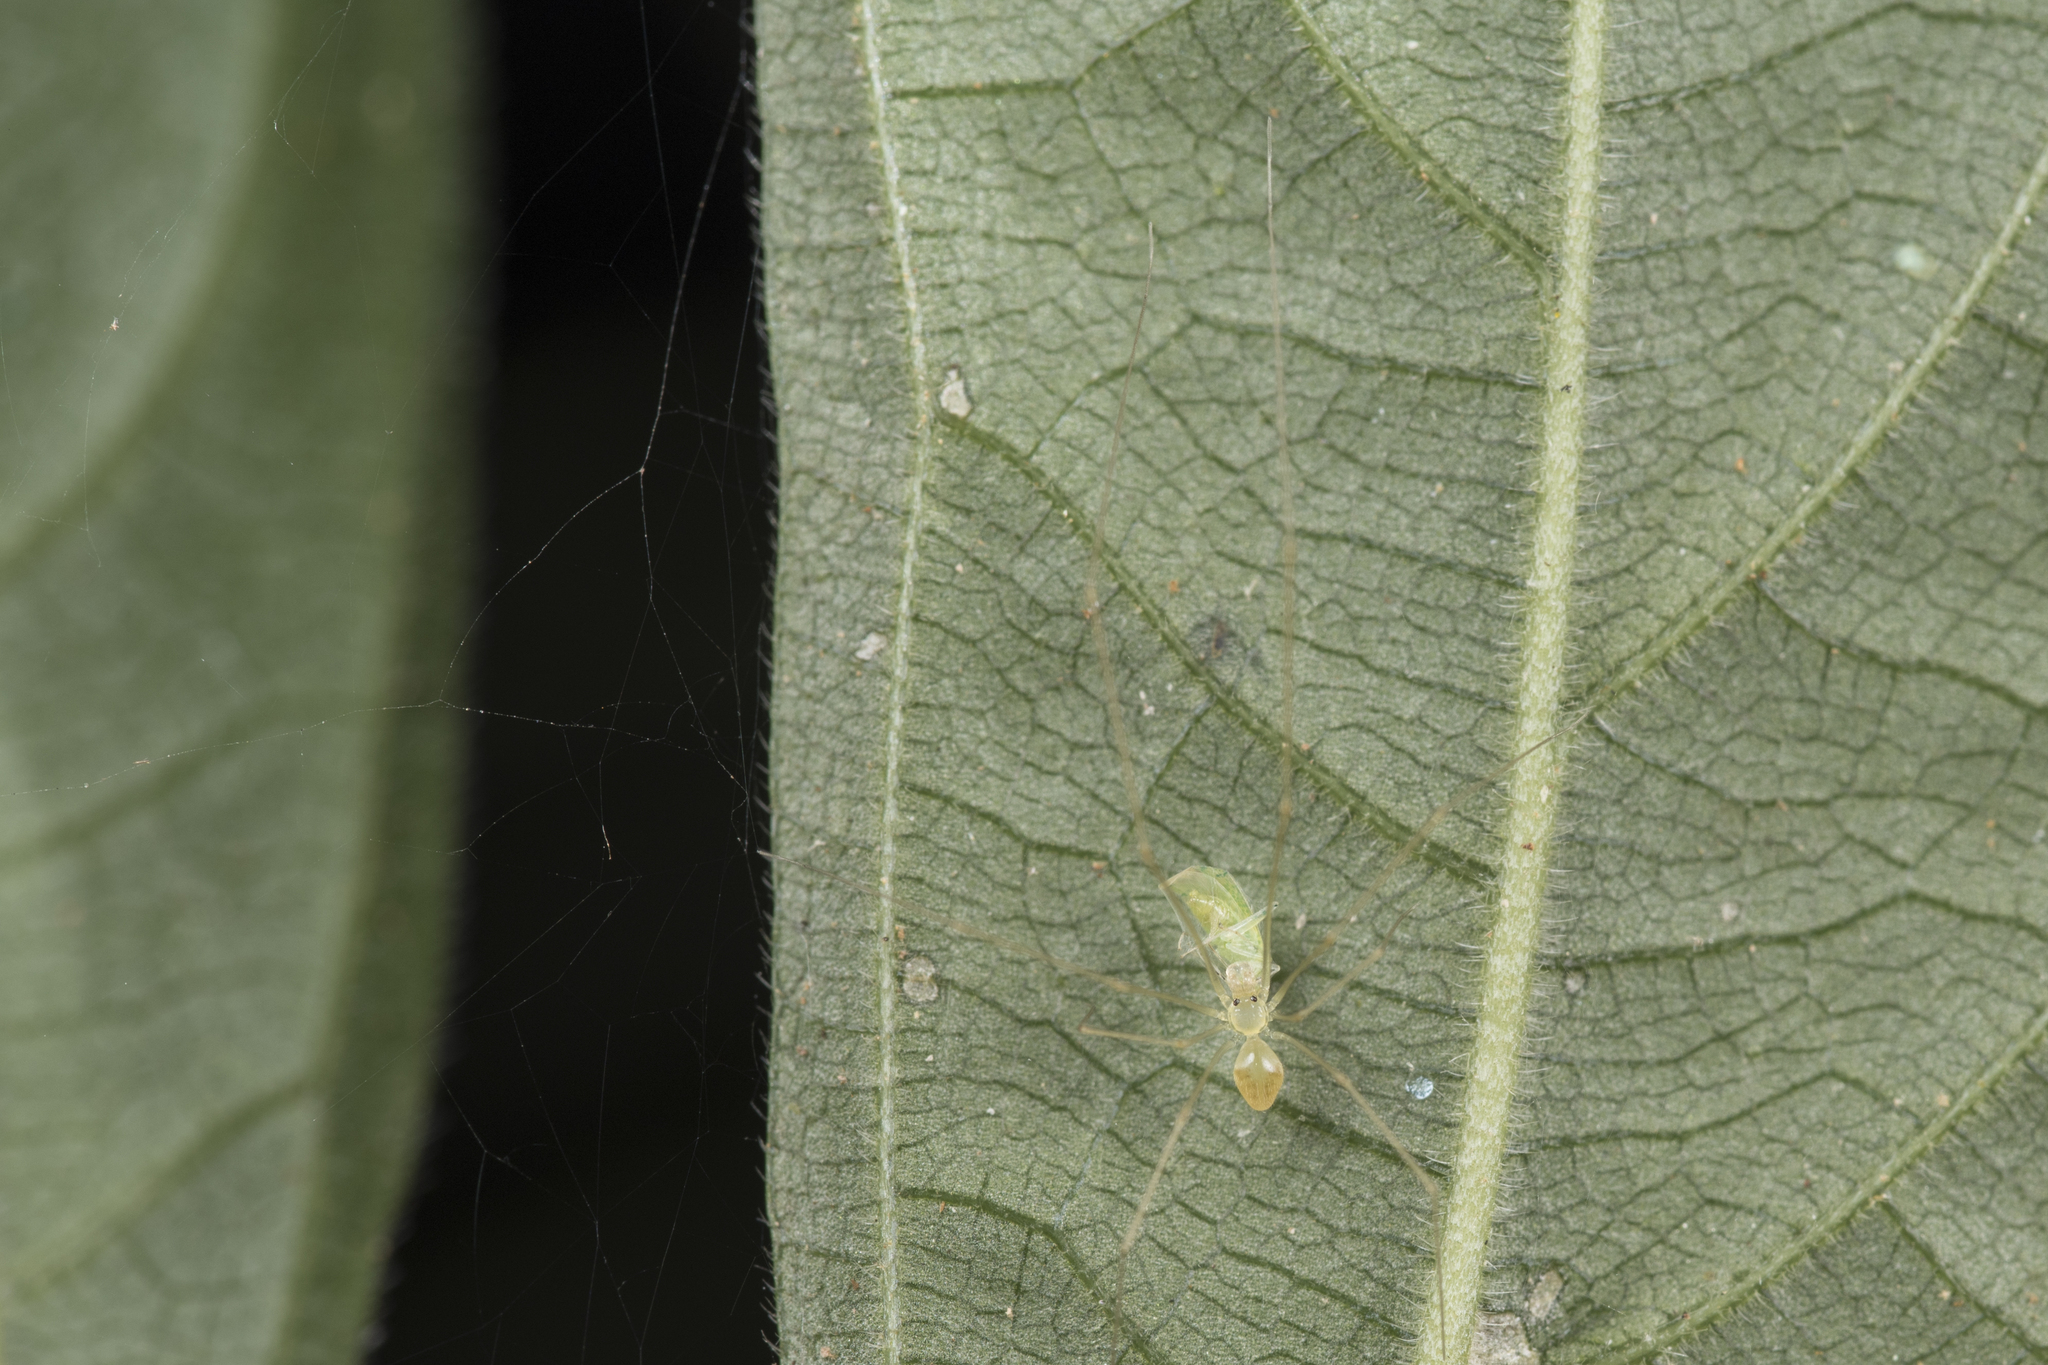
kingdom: Animalia
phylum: Arthropoda
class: Arachnida
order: Araneae
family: Pholcidae
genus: Belisana
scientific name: Belisana junkoae
